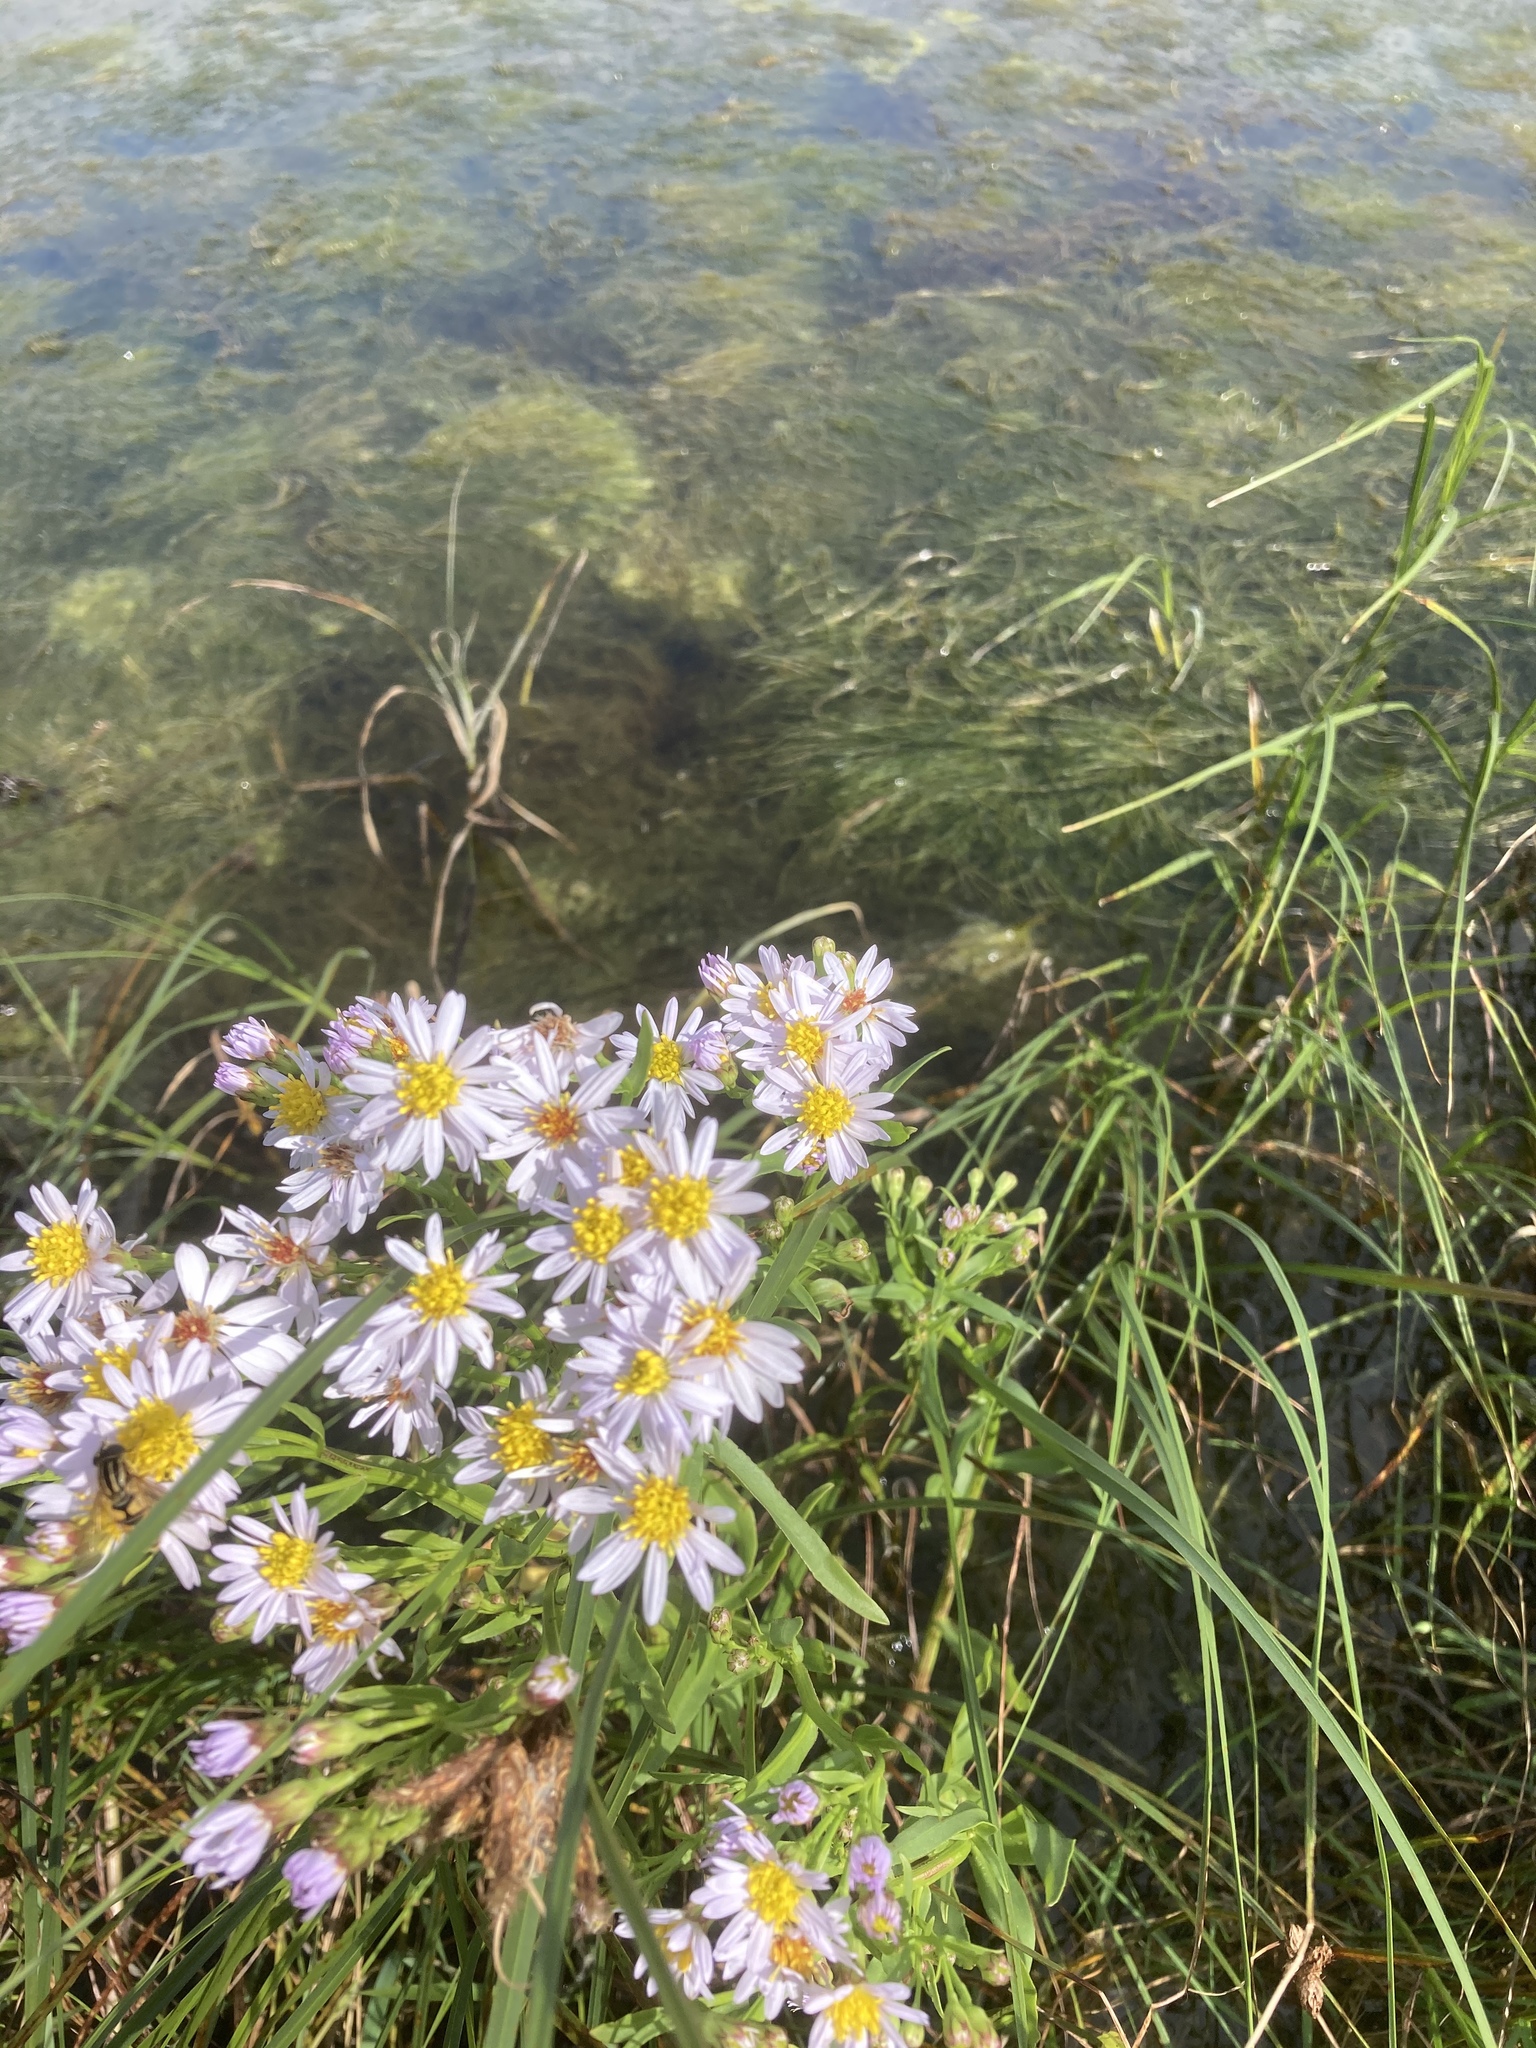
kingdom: Plantae
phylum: Tracheophyta
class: Magnoliopsida
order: Asterales
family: Asteraceae
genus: Tripolium
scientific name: Tripolium pannonicum
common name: Sea aster
